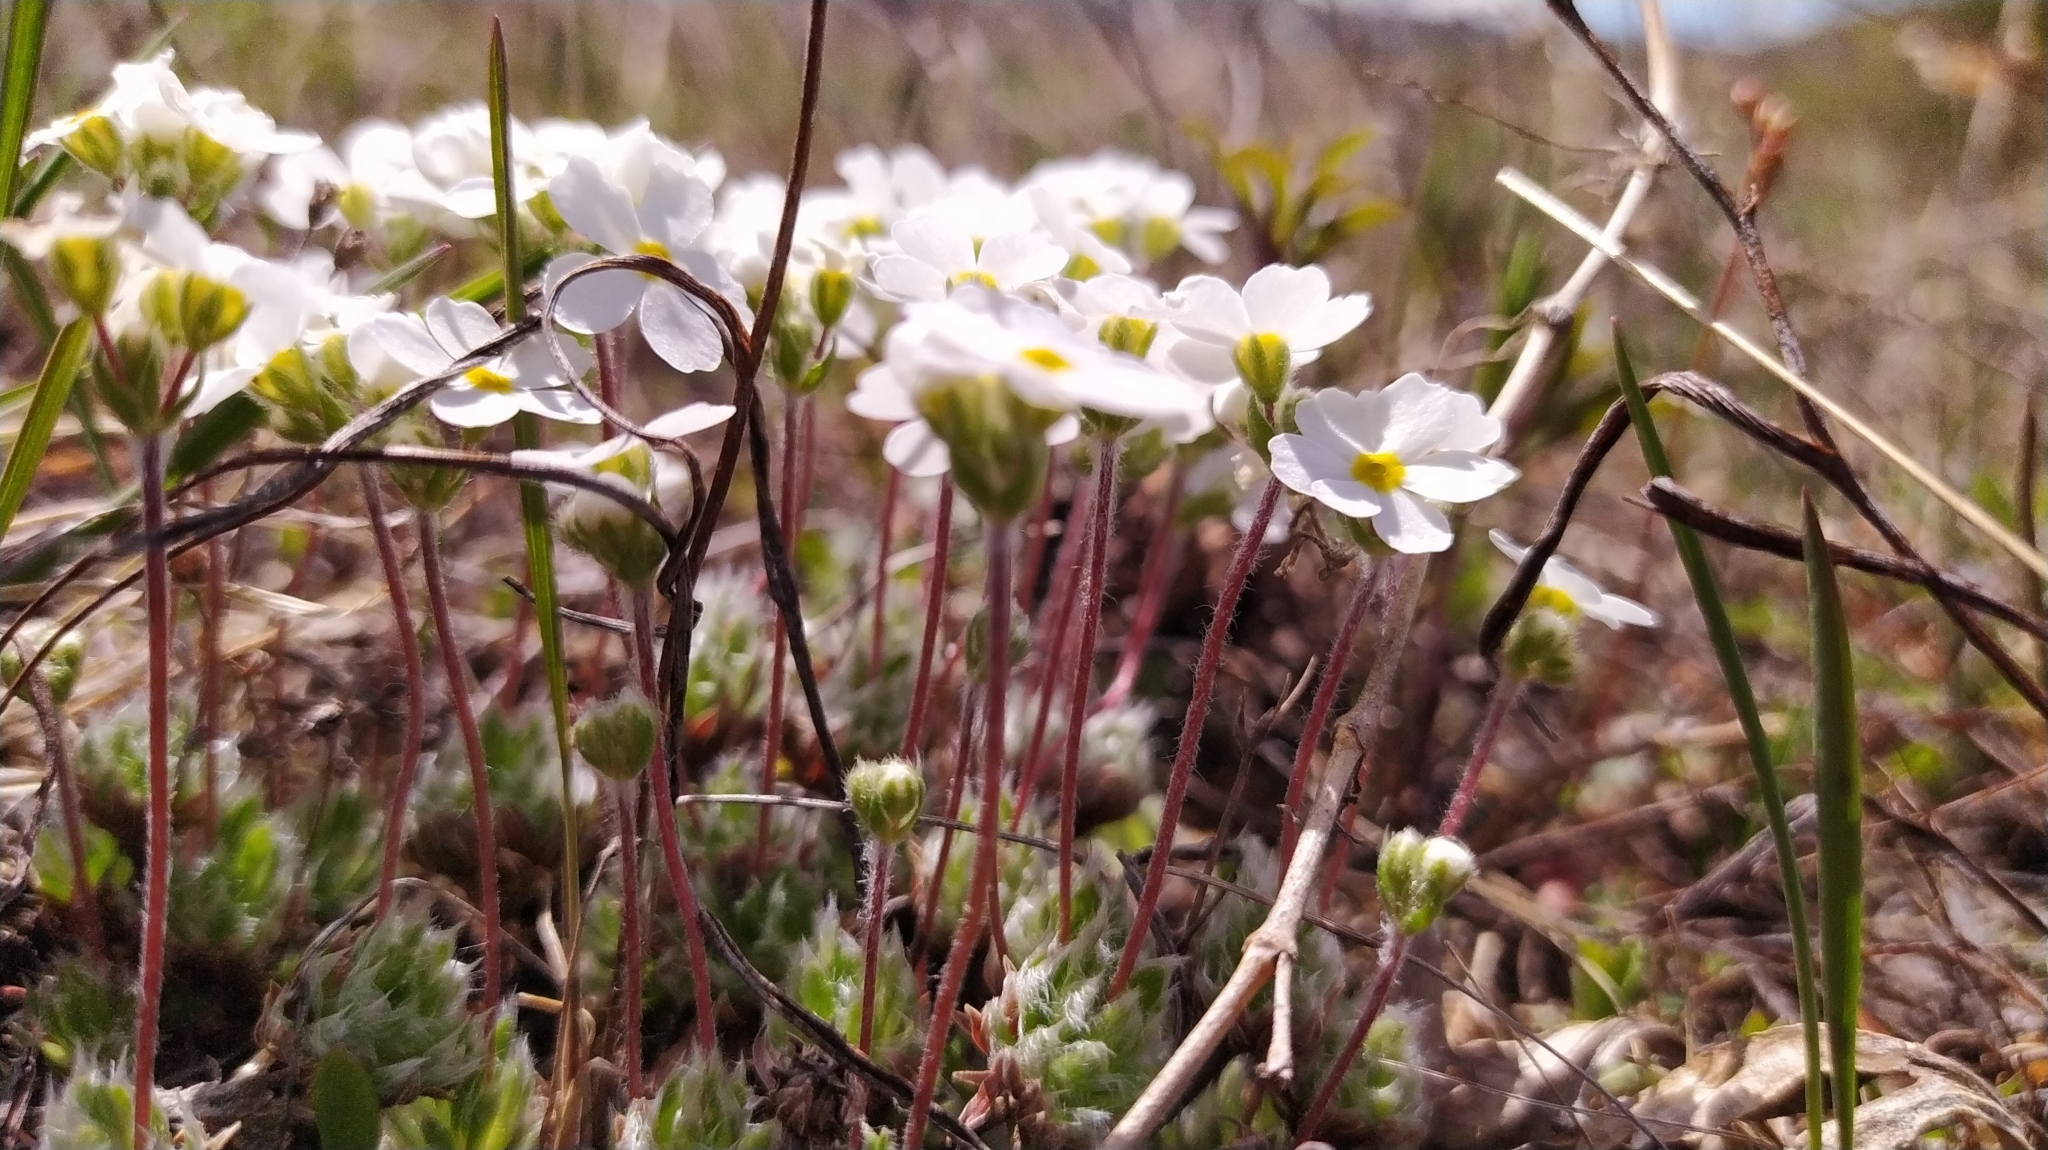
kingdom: Plantae
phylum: Tracheophyta
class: Magnoliopsida
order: Ericales
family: Primulaceae
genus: Androsace
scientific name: Androsace incana
